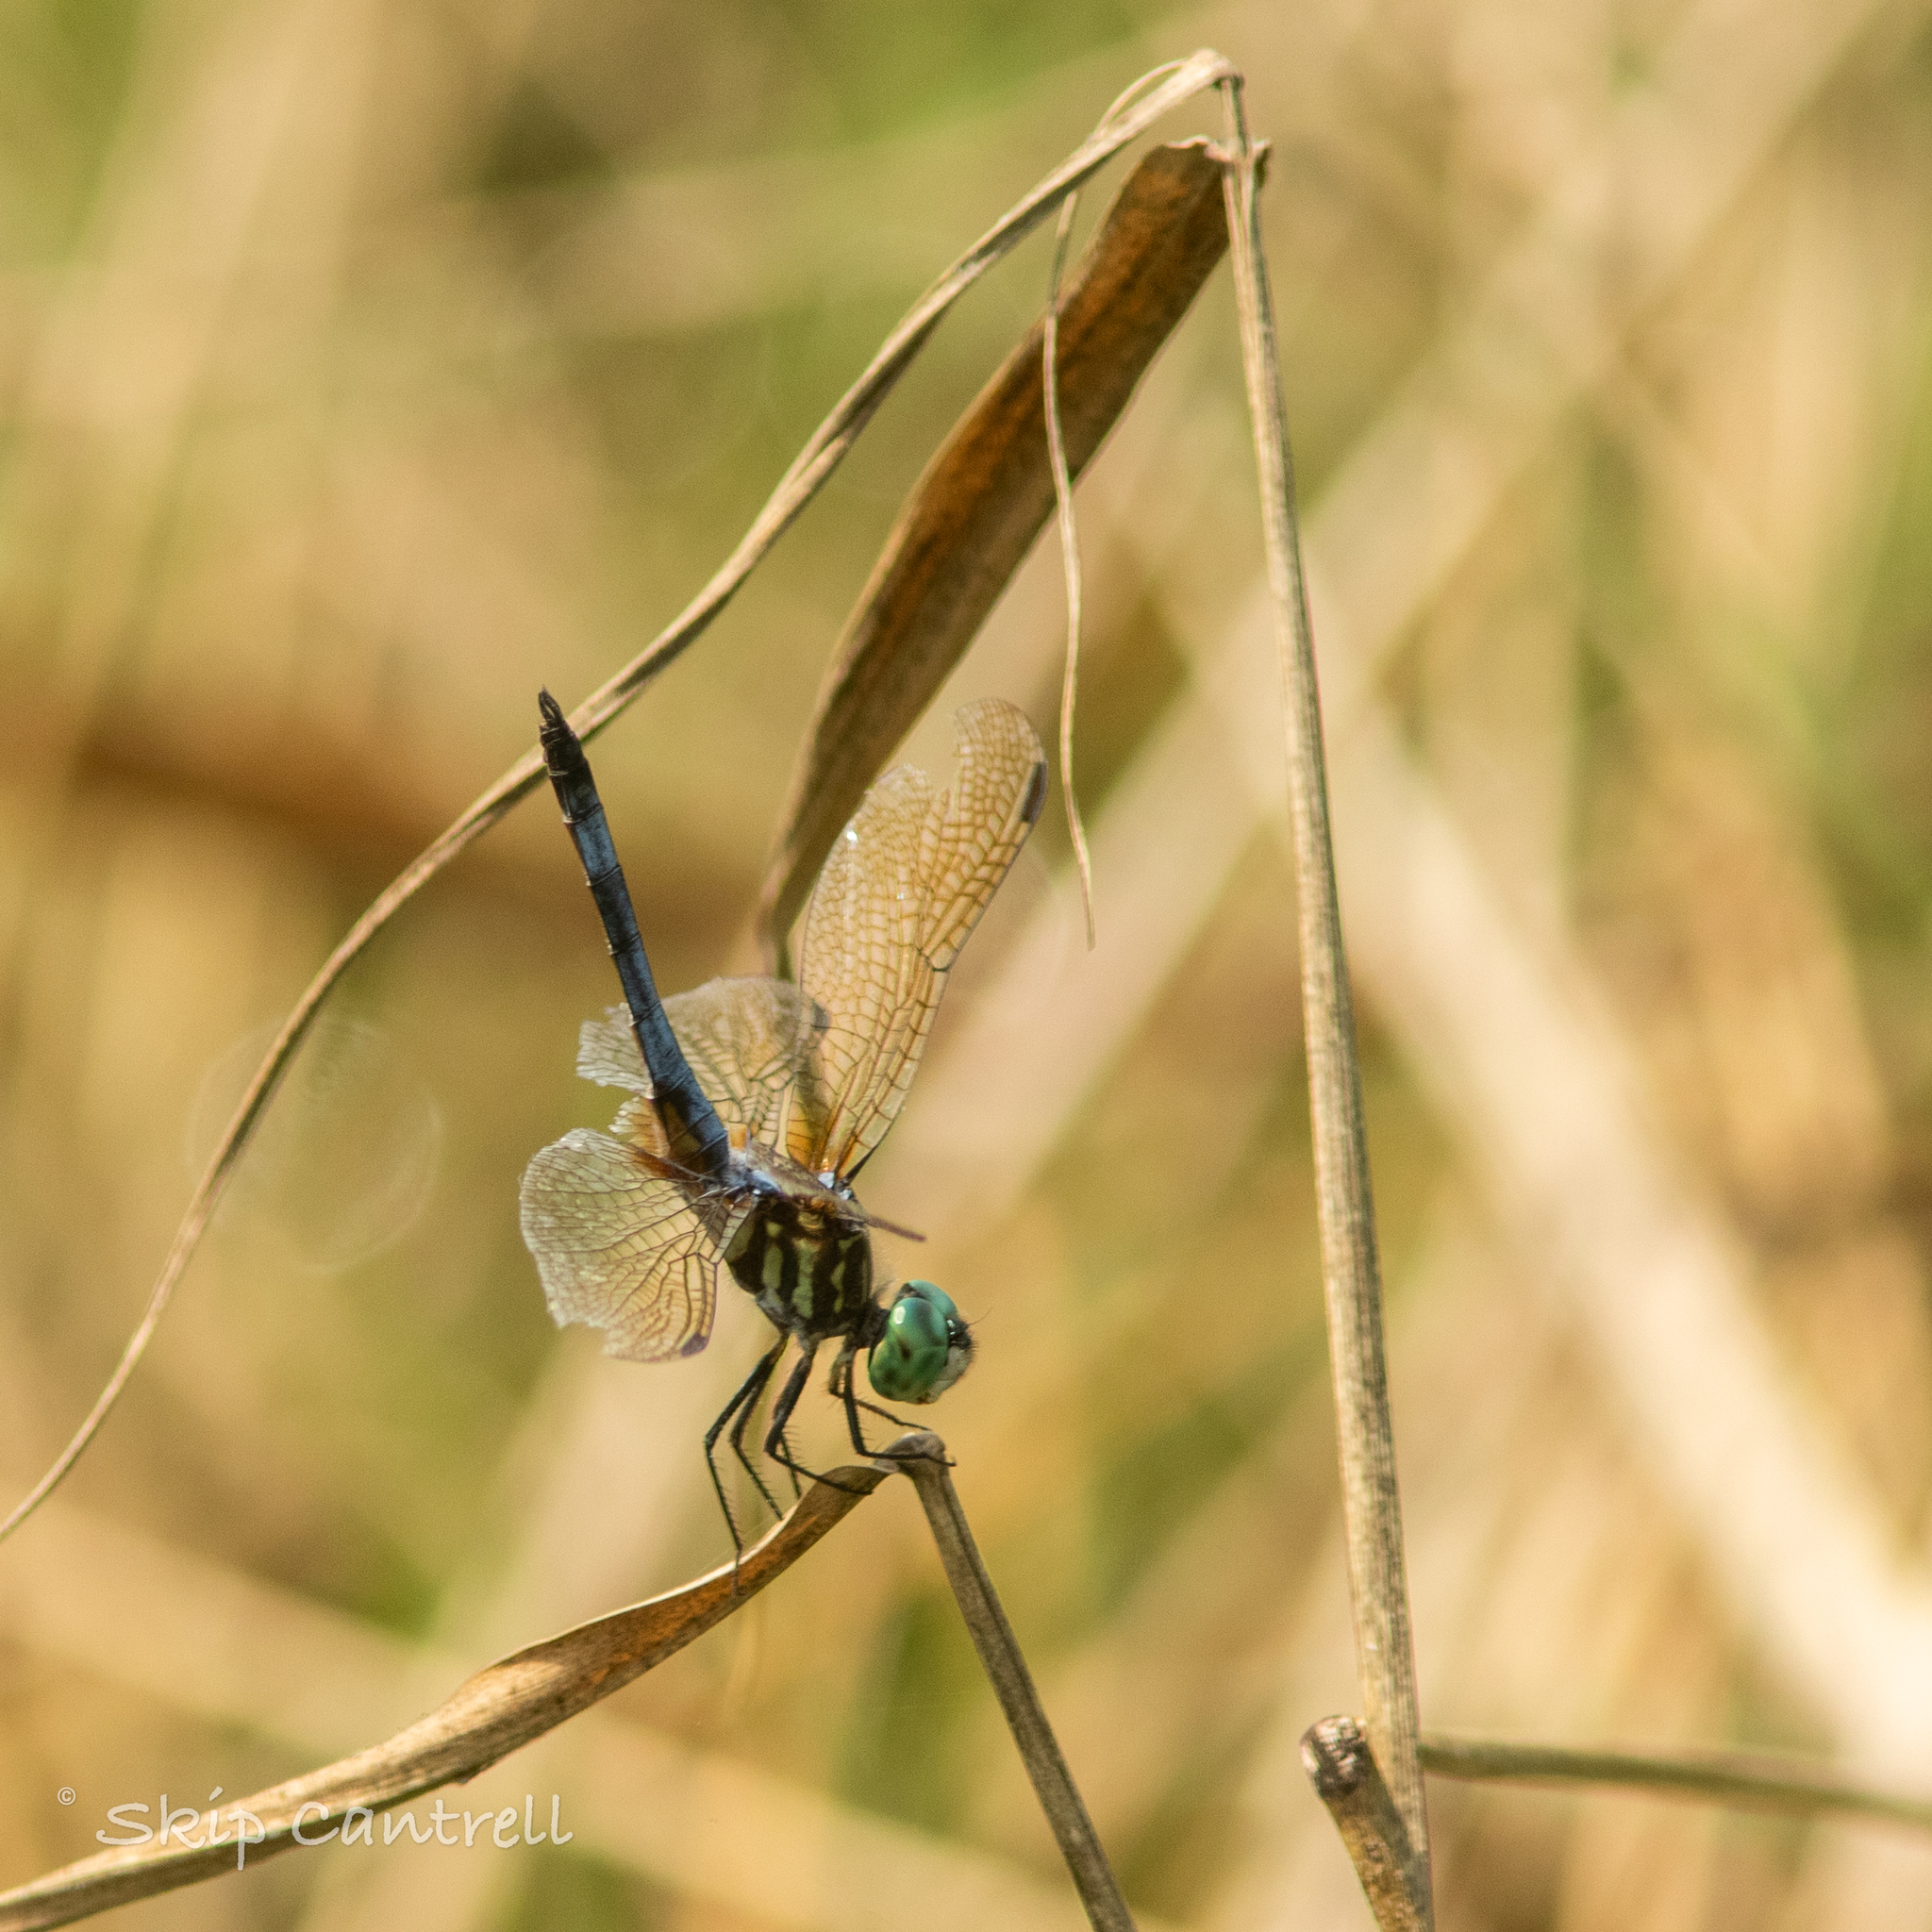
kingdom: Animalia
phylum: Arthropoda
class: Insecta
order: Odonata
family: Libellulidae
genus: Pachydiplax
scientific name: Pachydiplax longipennis
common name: Blue dasher
